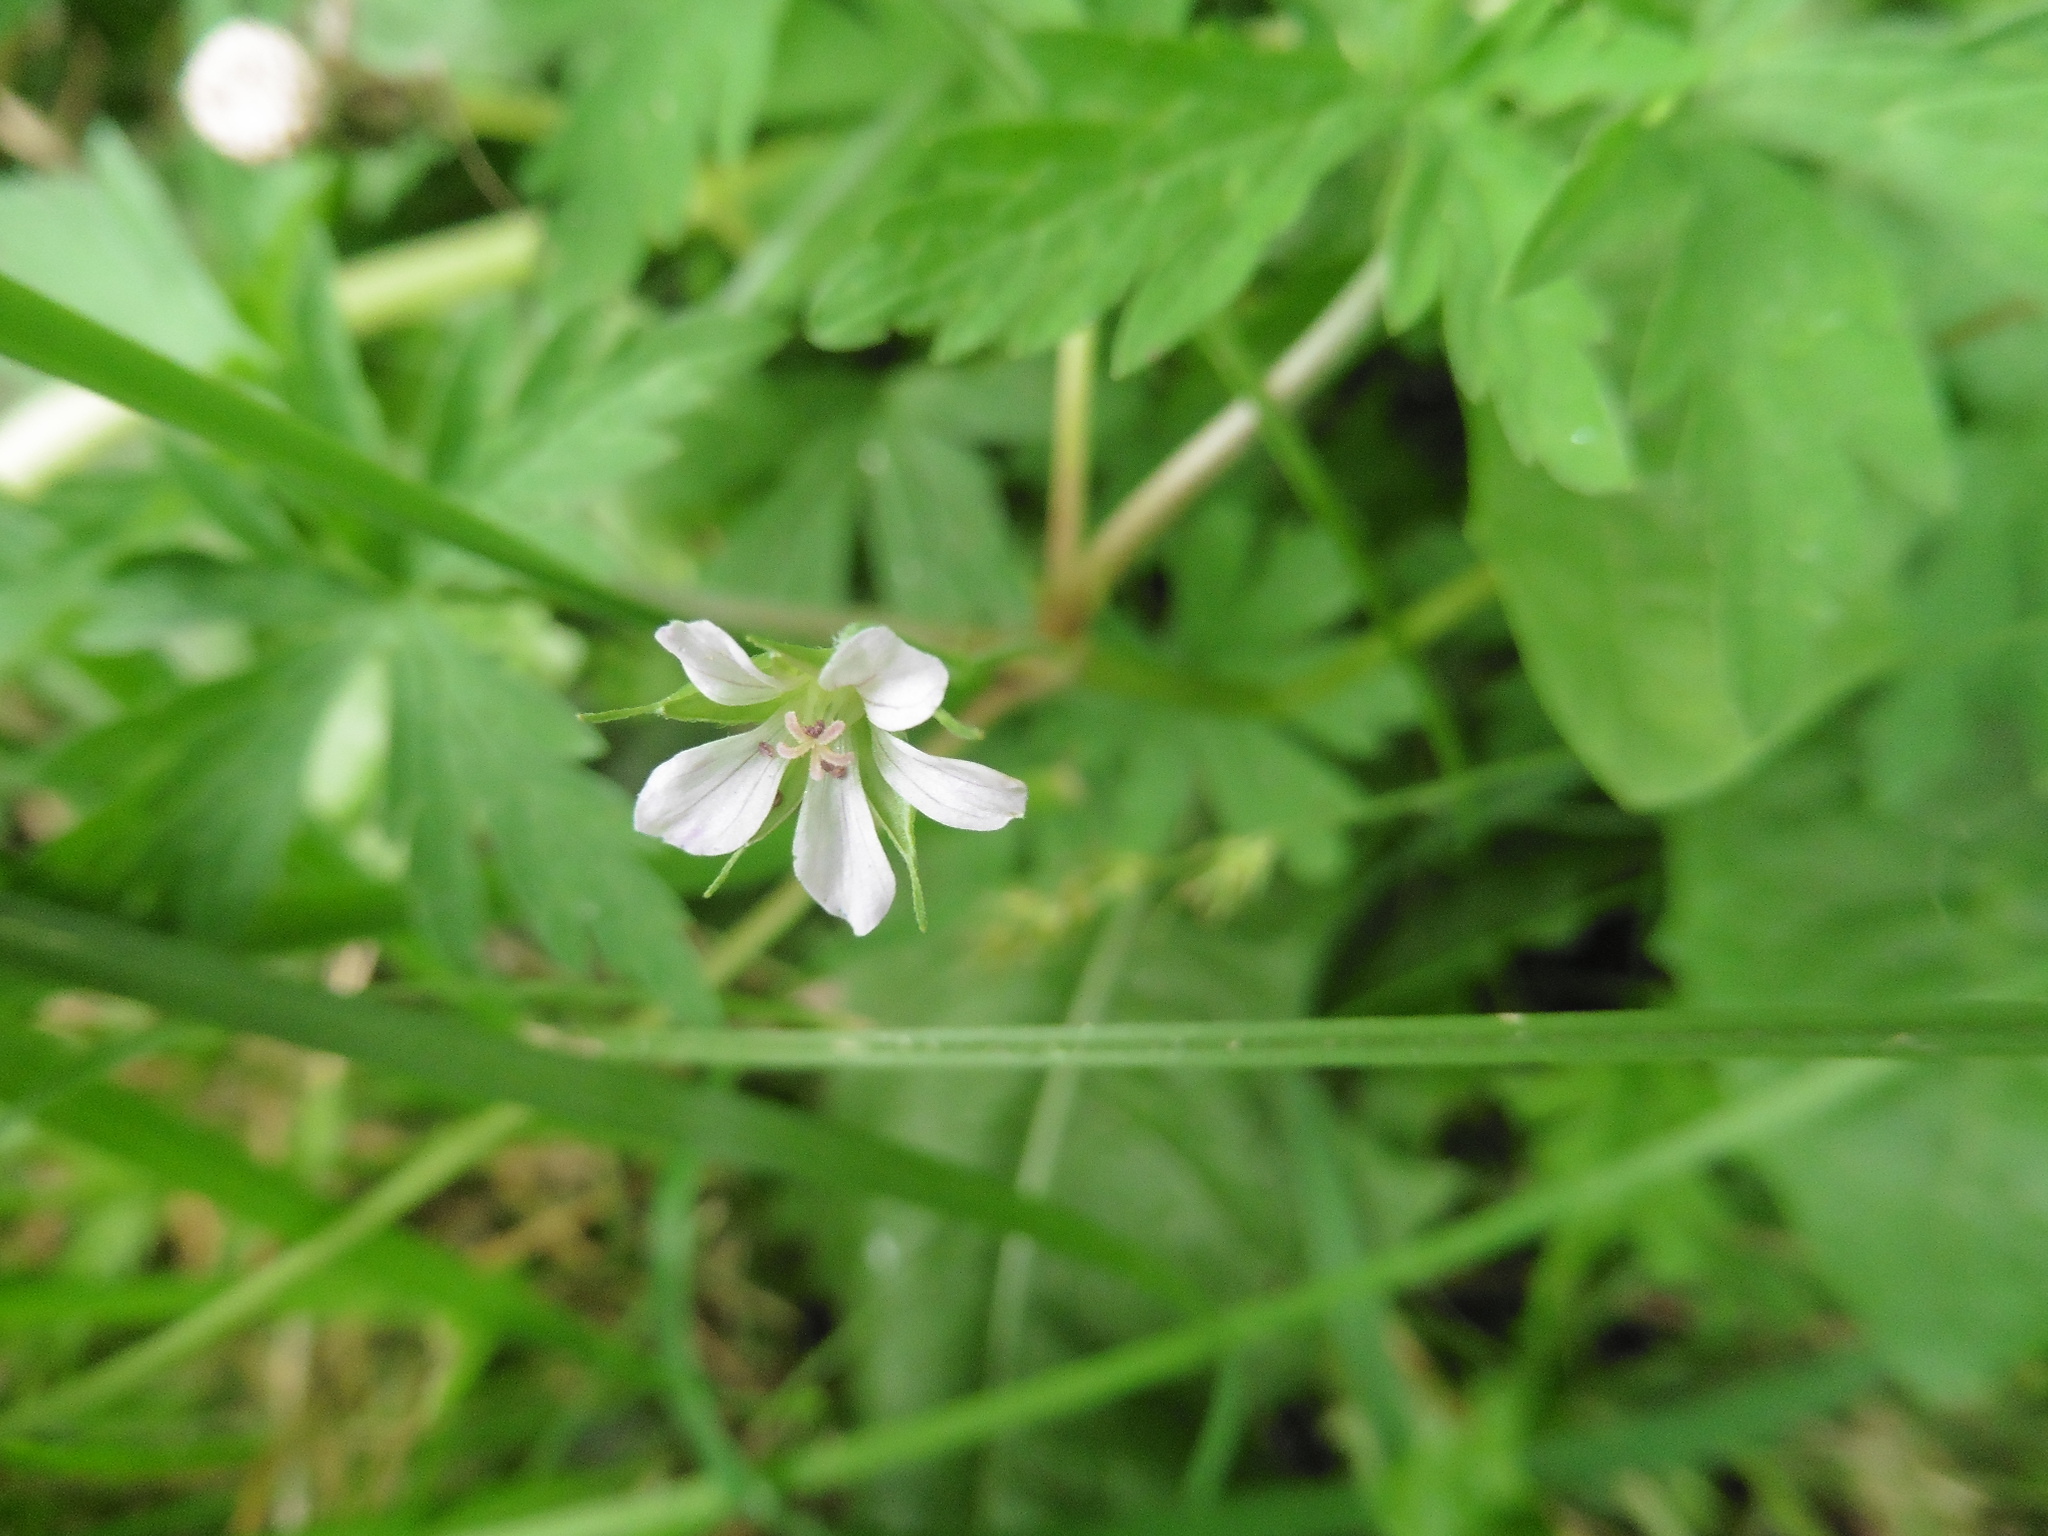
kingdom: Plantae
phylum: Tracheophyta
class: Magnoliopsida
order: Geraniales
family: Geraniaceae
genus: Geranium
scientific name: Geranium sibiricum
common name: Siberian crane's-bill
